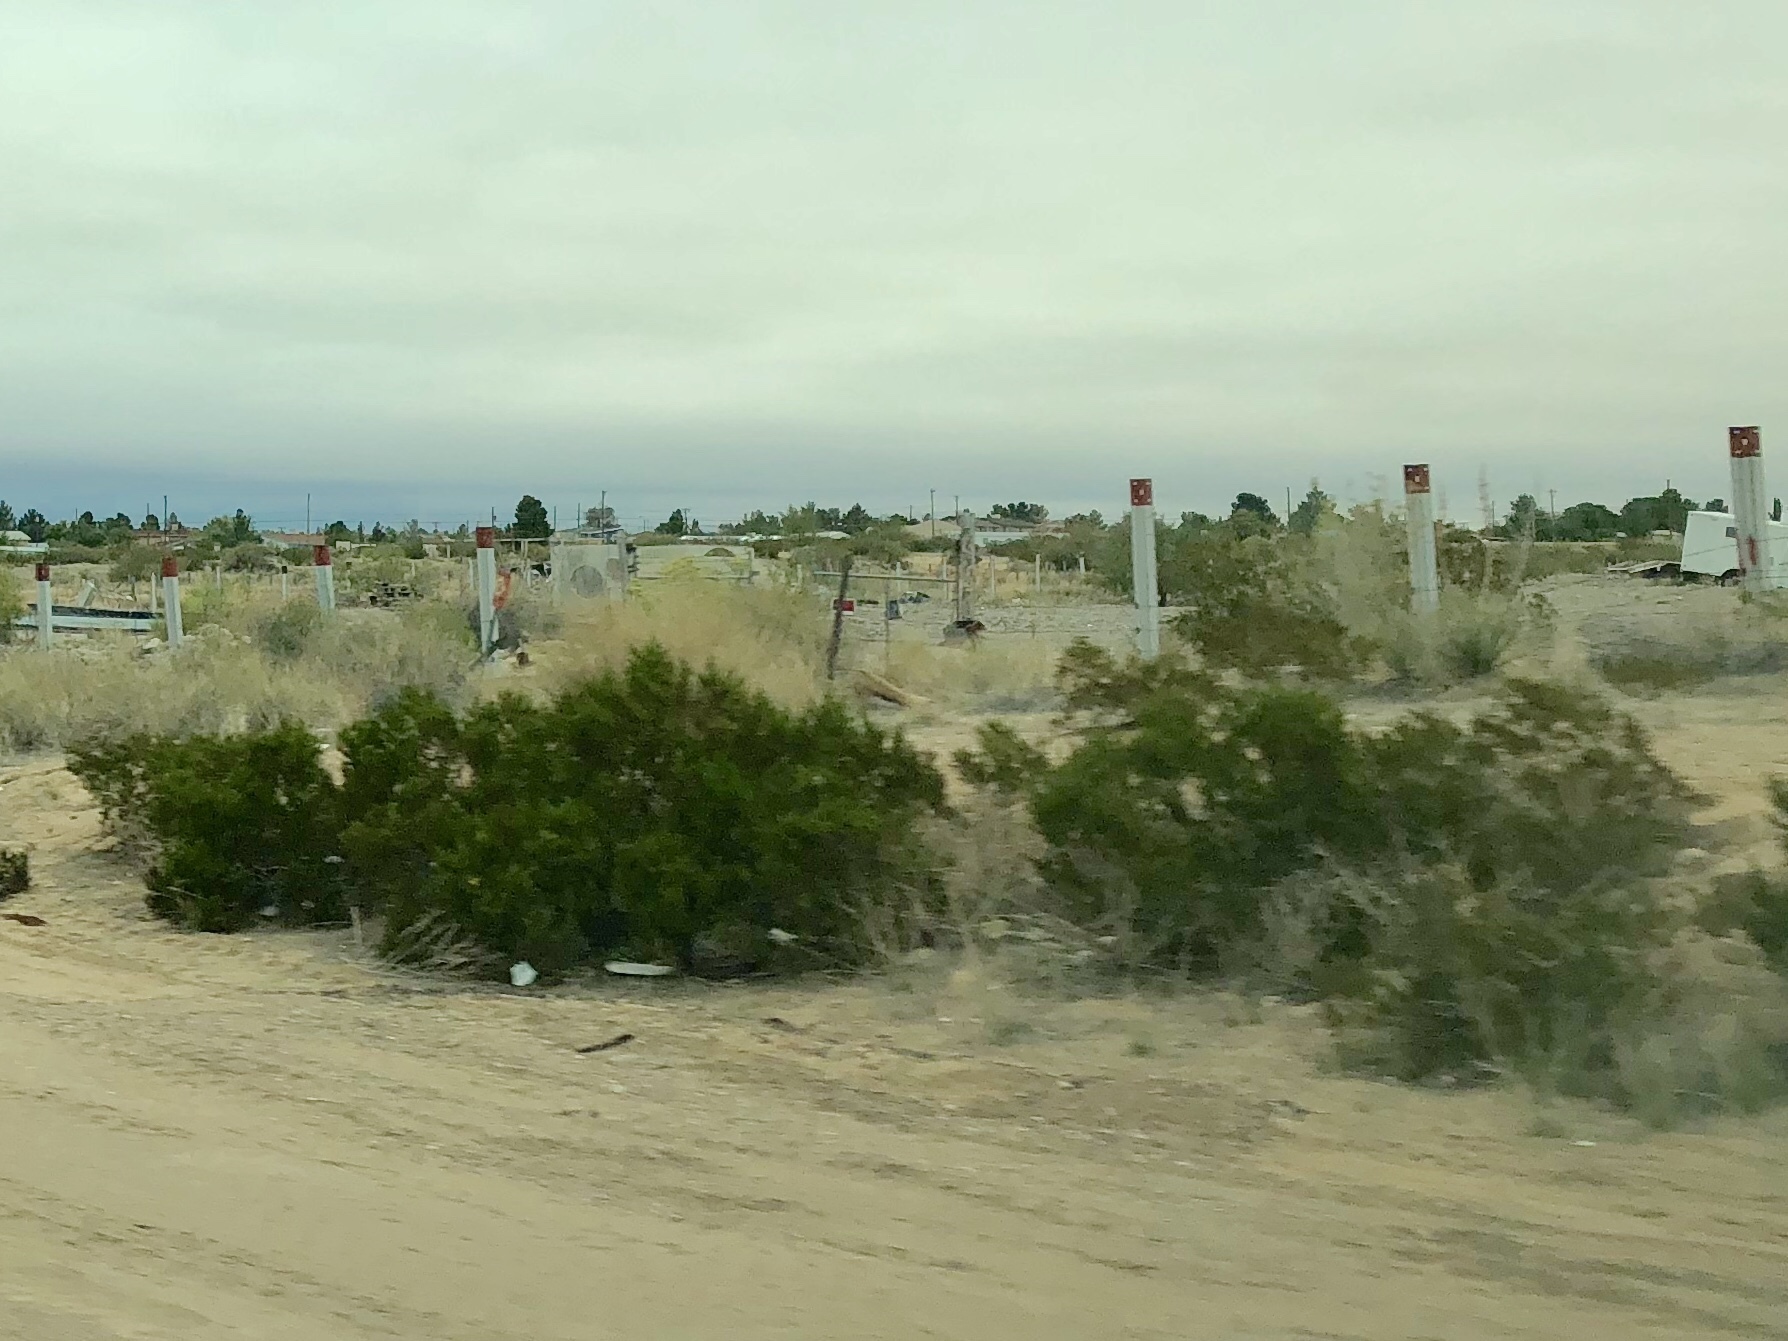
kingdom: Plantae
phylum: Tracheophyta
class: Magnoliopsida
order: Zygophyllales
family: Zygophyllaceae
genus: Larrea
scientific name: Larrea tridentata
